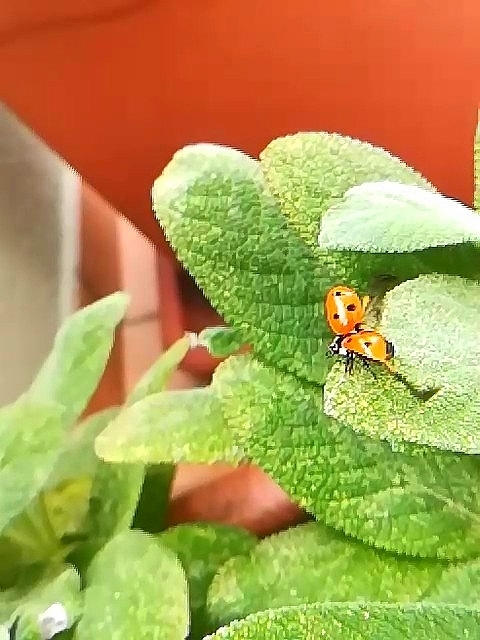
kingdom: Animalia
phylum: Arthropoda
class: Insecta
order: Coleoptera
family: Coccinellidae
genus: Coccinella
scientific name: Coccinella septempunctata
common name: Sevenspotted lady beetle
